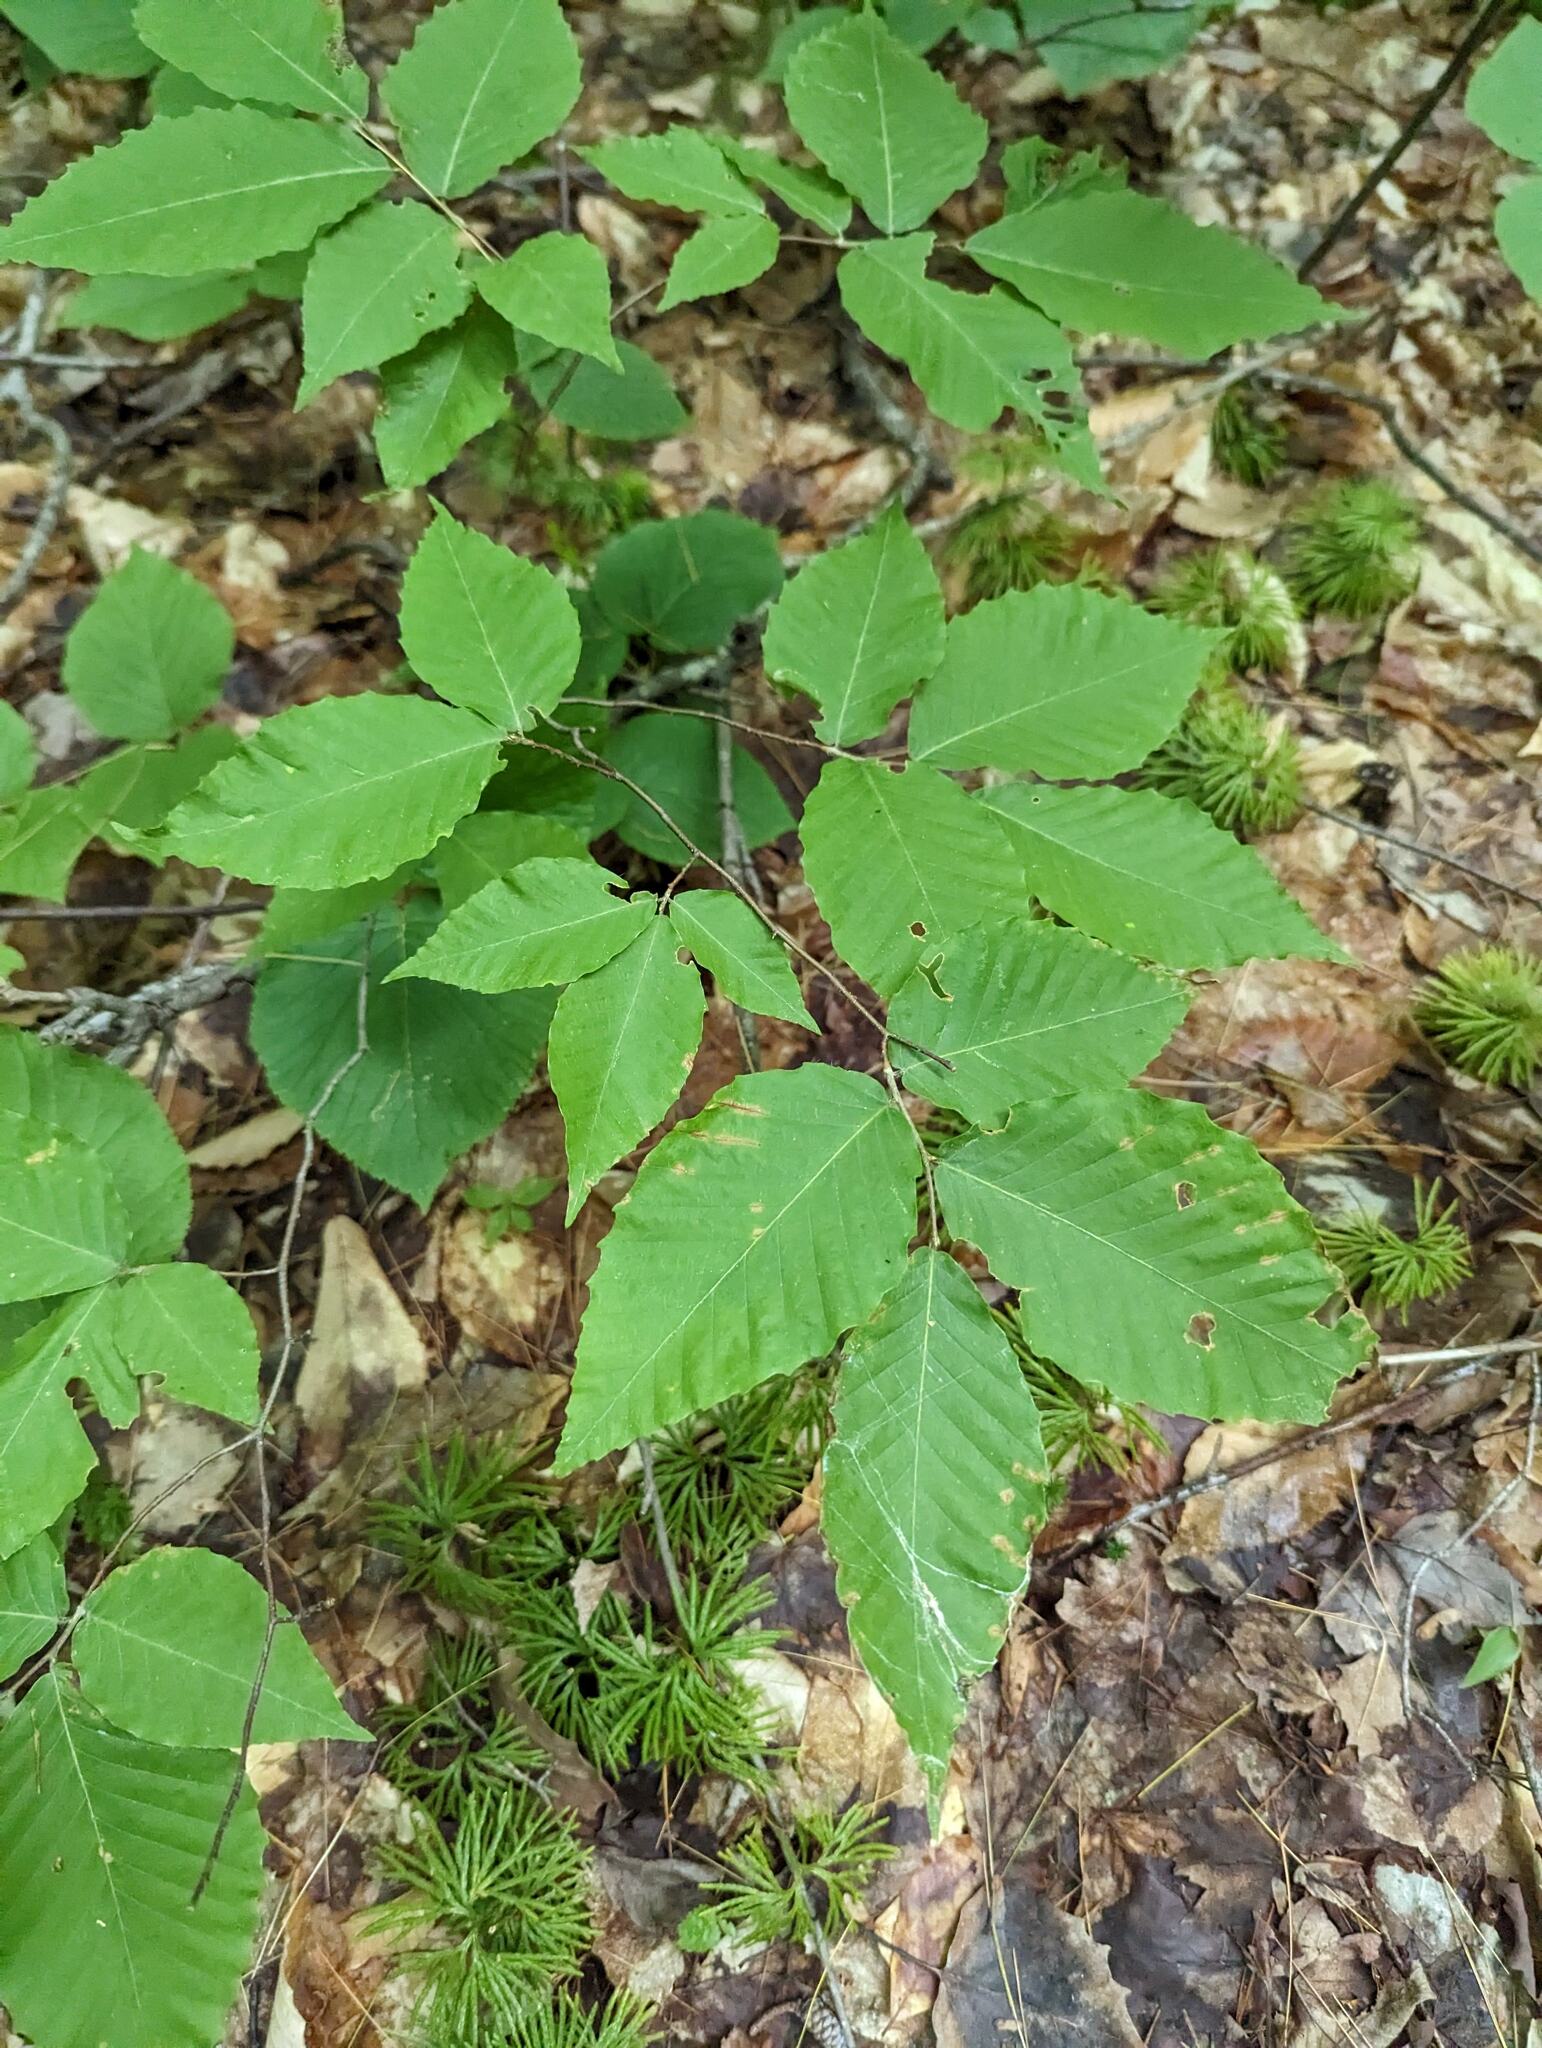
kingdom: Plantae
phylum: Tracheophyta
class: Magnoliopsida
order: Fagales
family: Fagaceae
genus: Fagus
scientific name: Fagus grandifolia
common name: American beech
